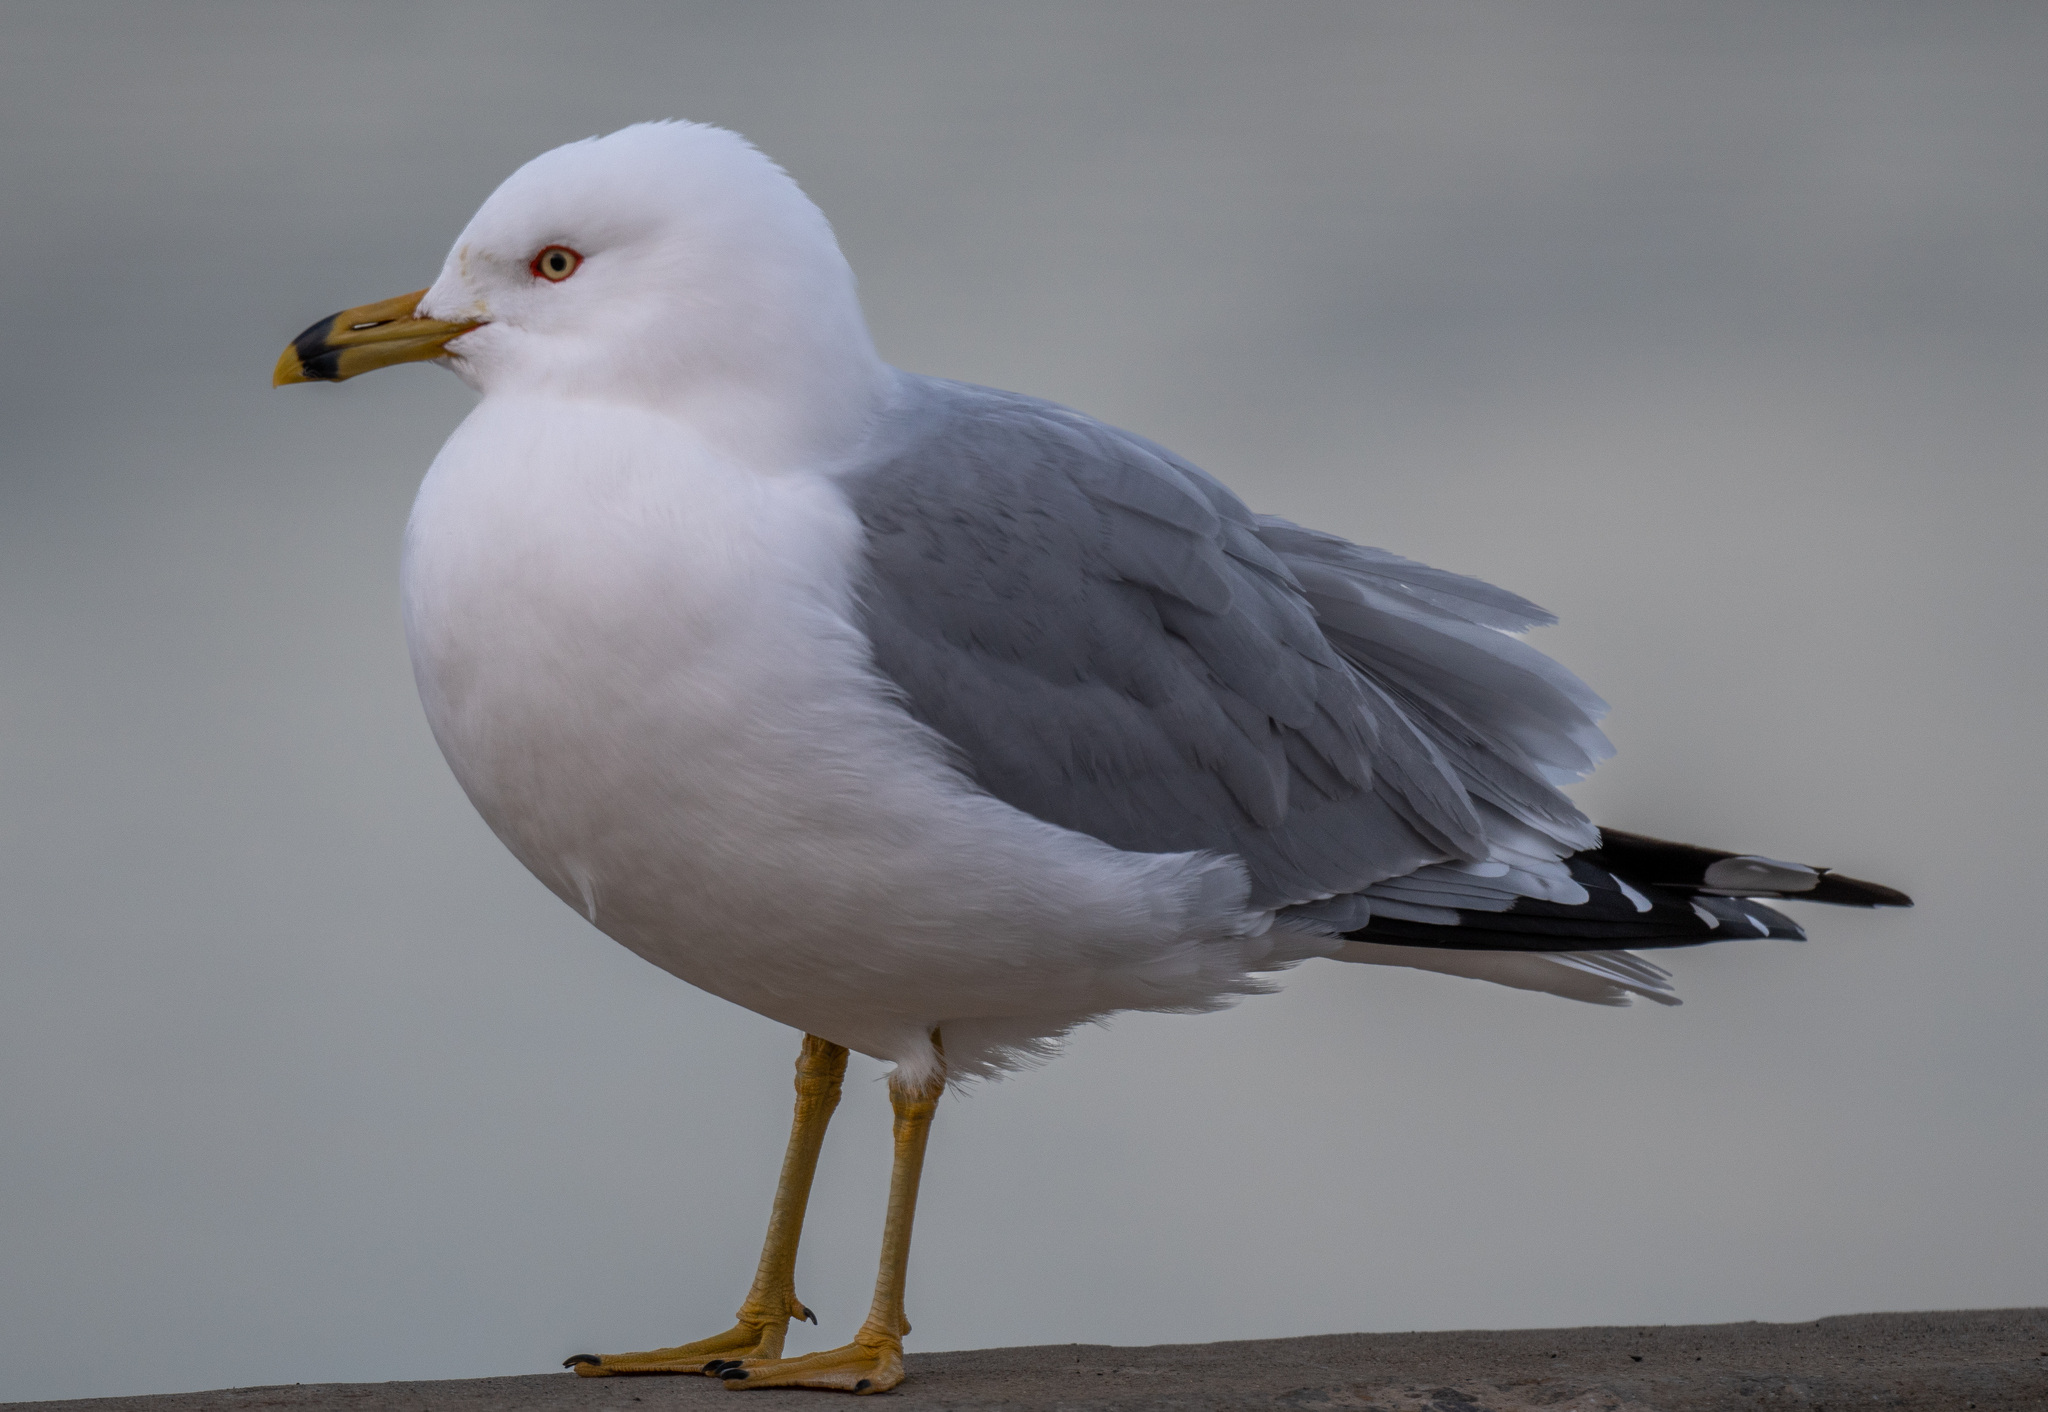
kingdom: Animalia
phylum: Chordata
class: Aves
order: Charadriiformes
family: Laridae
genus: Larus
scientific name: Larus delawarensis
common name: Ring-billed gull
